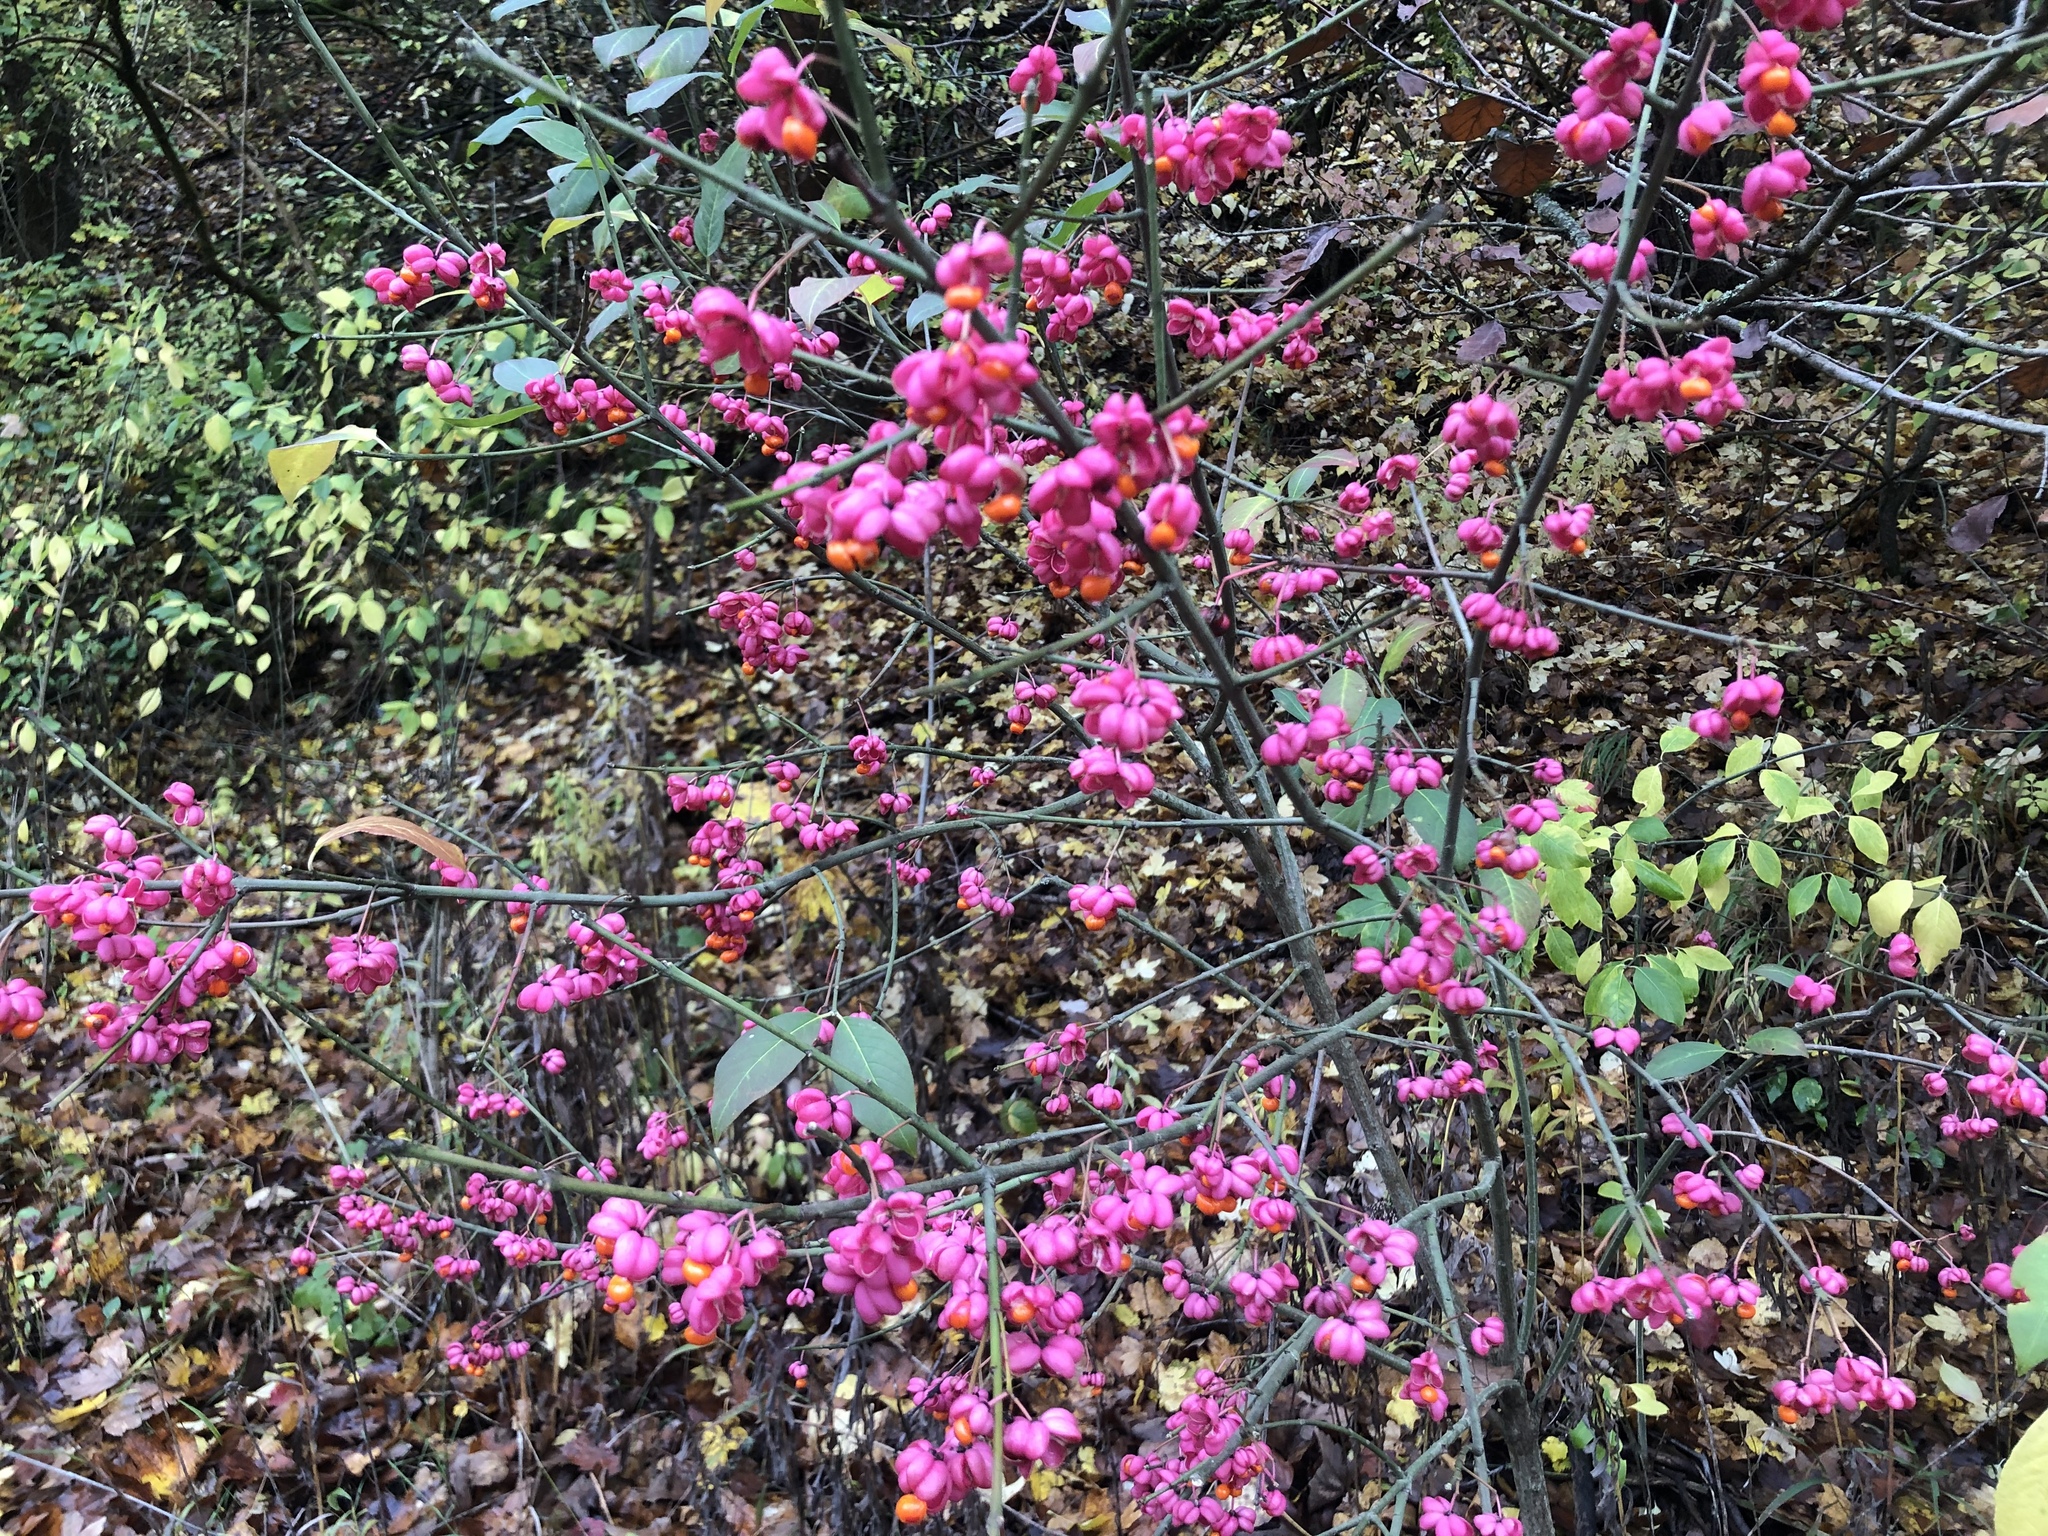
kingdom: Plantae
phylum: Tracheophyta
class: Magnoliopsida
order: Celastrales
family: Celastraceae
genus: Euonymus
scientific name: Euonymus europaeus
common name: Spindle
